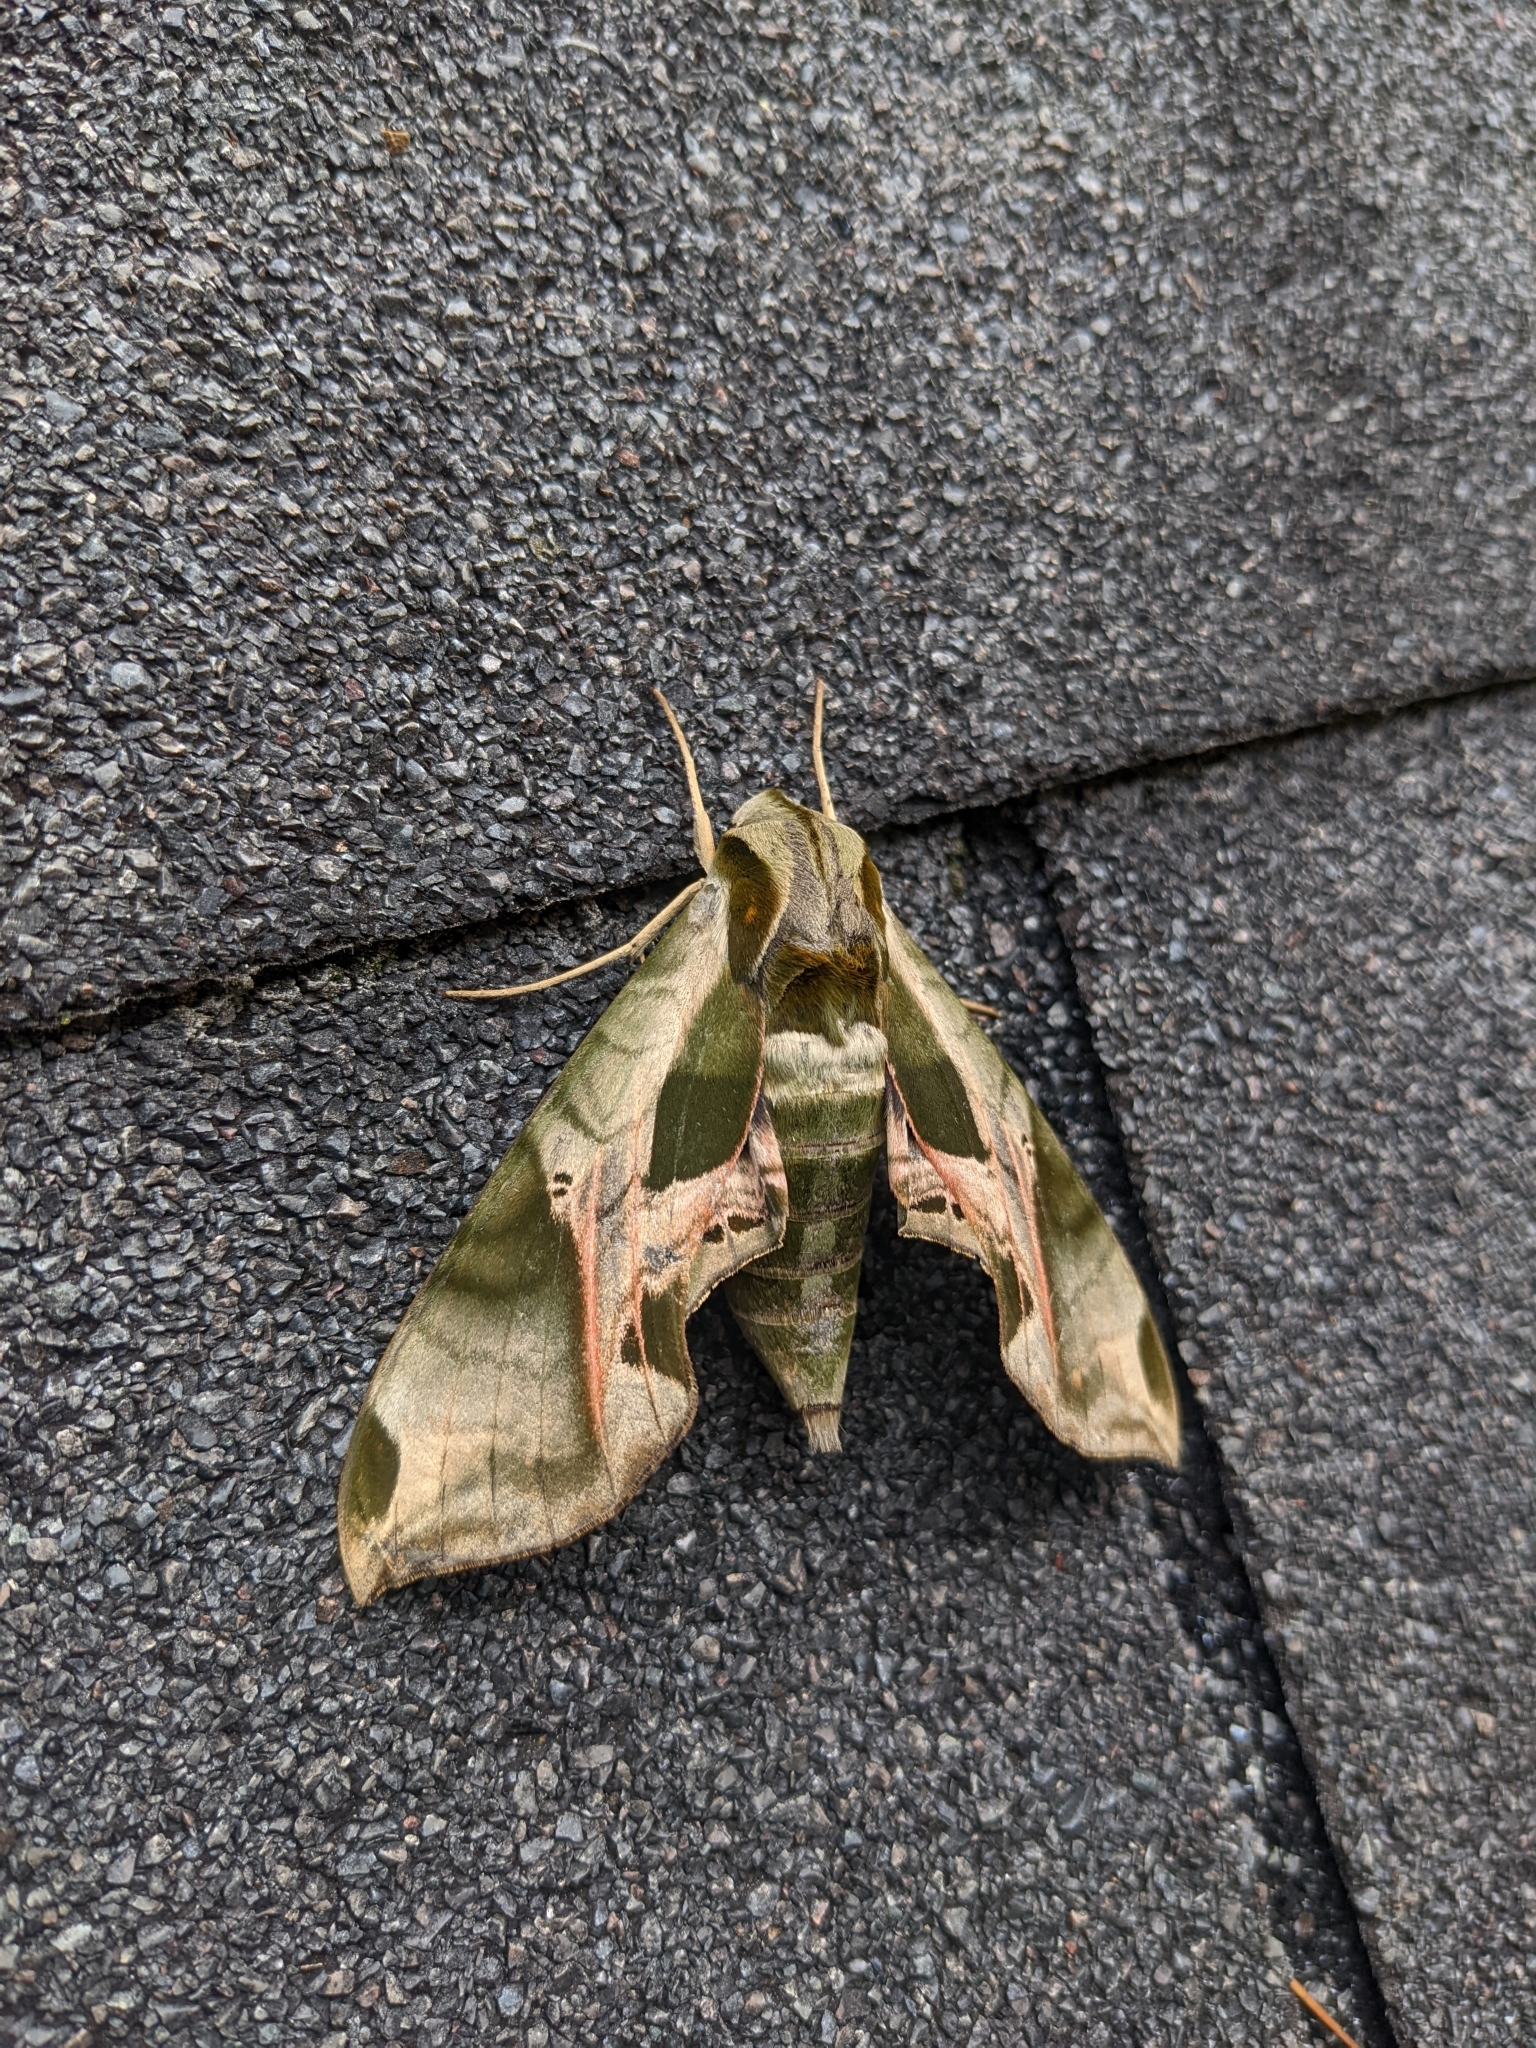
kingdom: Animalia
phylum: Arthropoda
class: Insecta
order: Lepidoptera
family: Sphingidae
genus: Eumorpha
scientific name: Eumorpha pandorus
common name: Pandora sphinx
